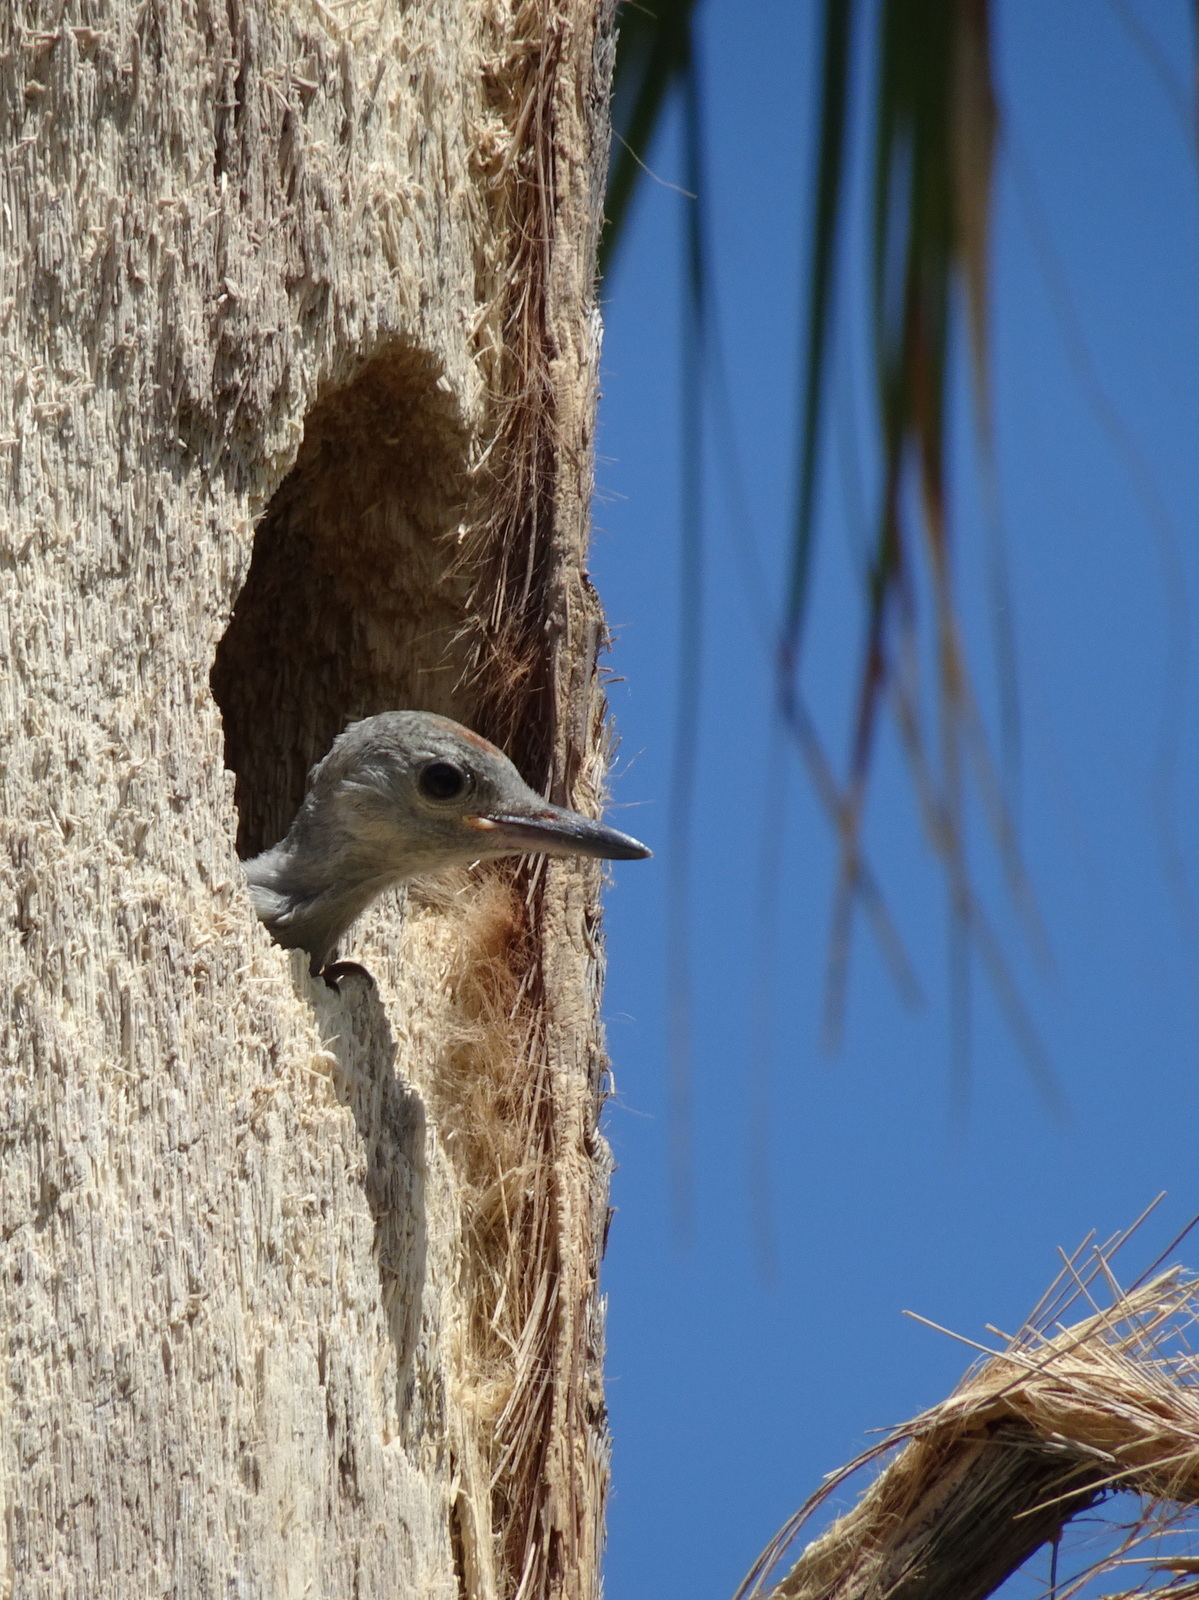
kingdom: Animalia
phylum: Chordata
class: Aves
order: Piciformes
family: Picidae
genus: Melanerpes
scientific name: Melanerpes carolinus
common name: Red-bellied woodpecker
